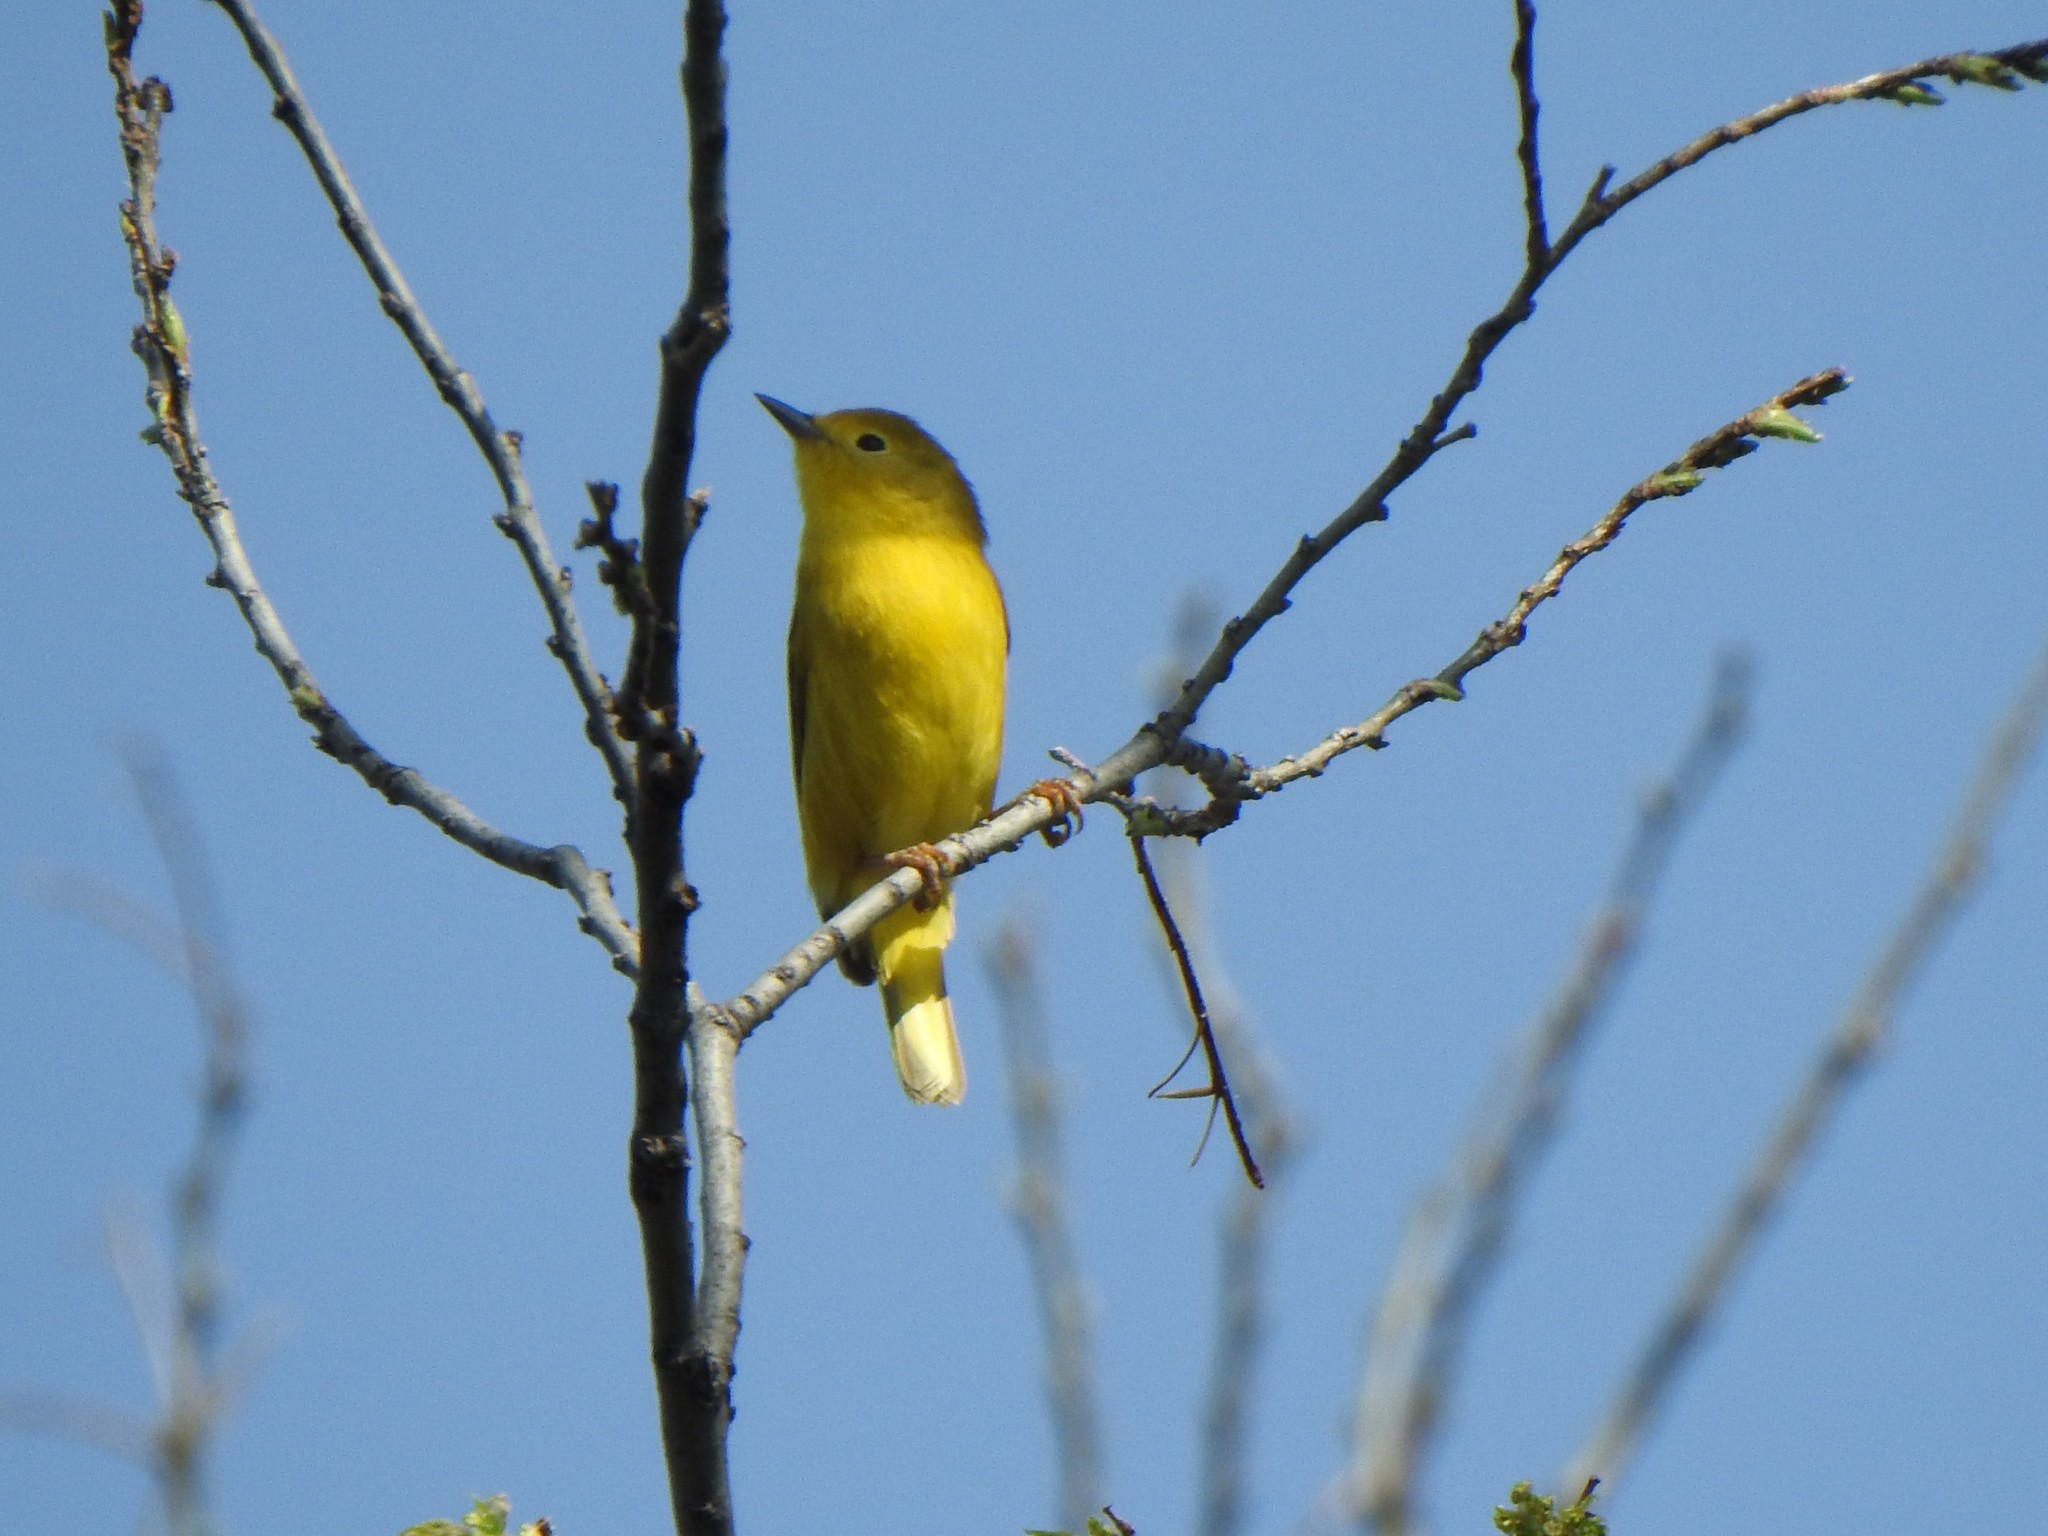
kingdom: Animalia
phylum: Chordata
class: Aves
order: Passeriformes
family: Parulidae
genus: Setophaga
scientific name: Setophaga petechia
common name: Yellow warbler
